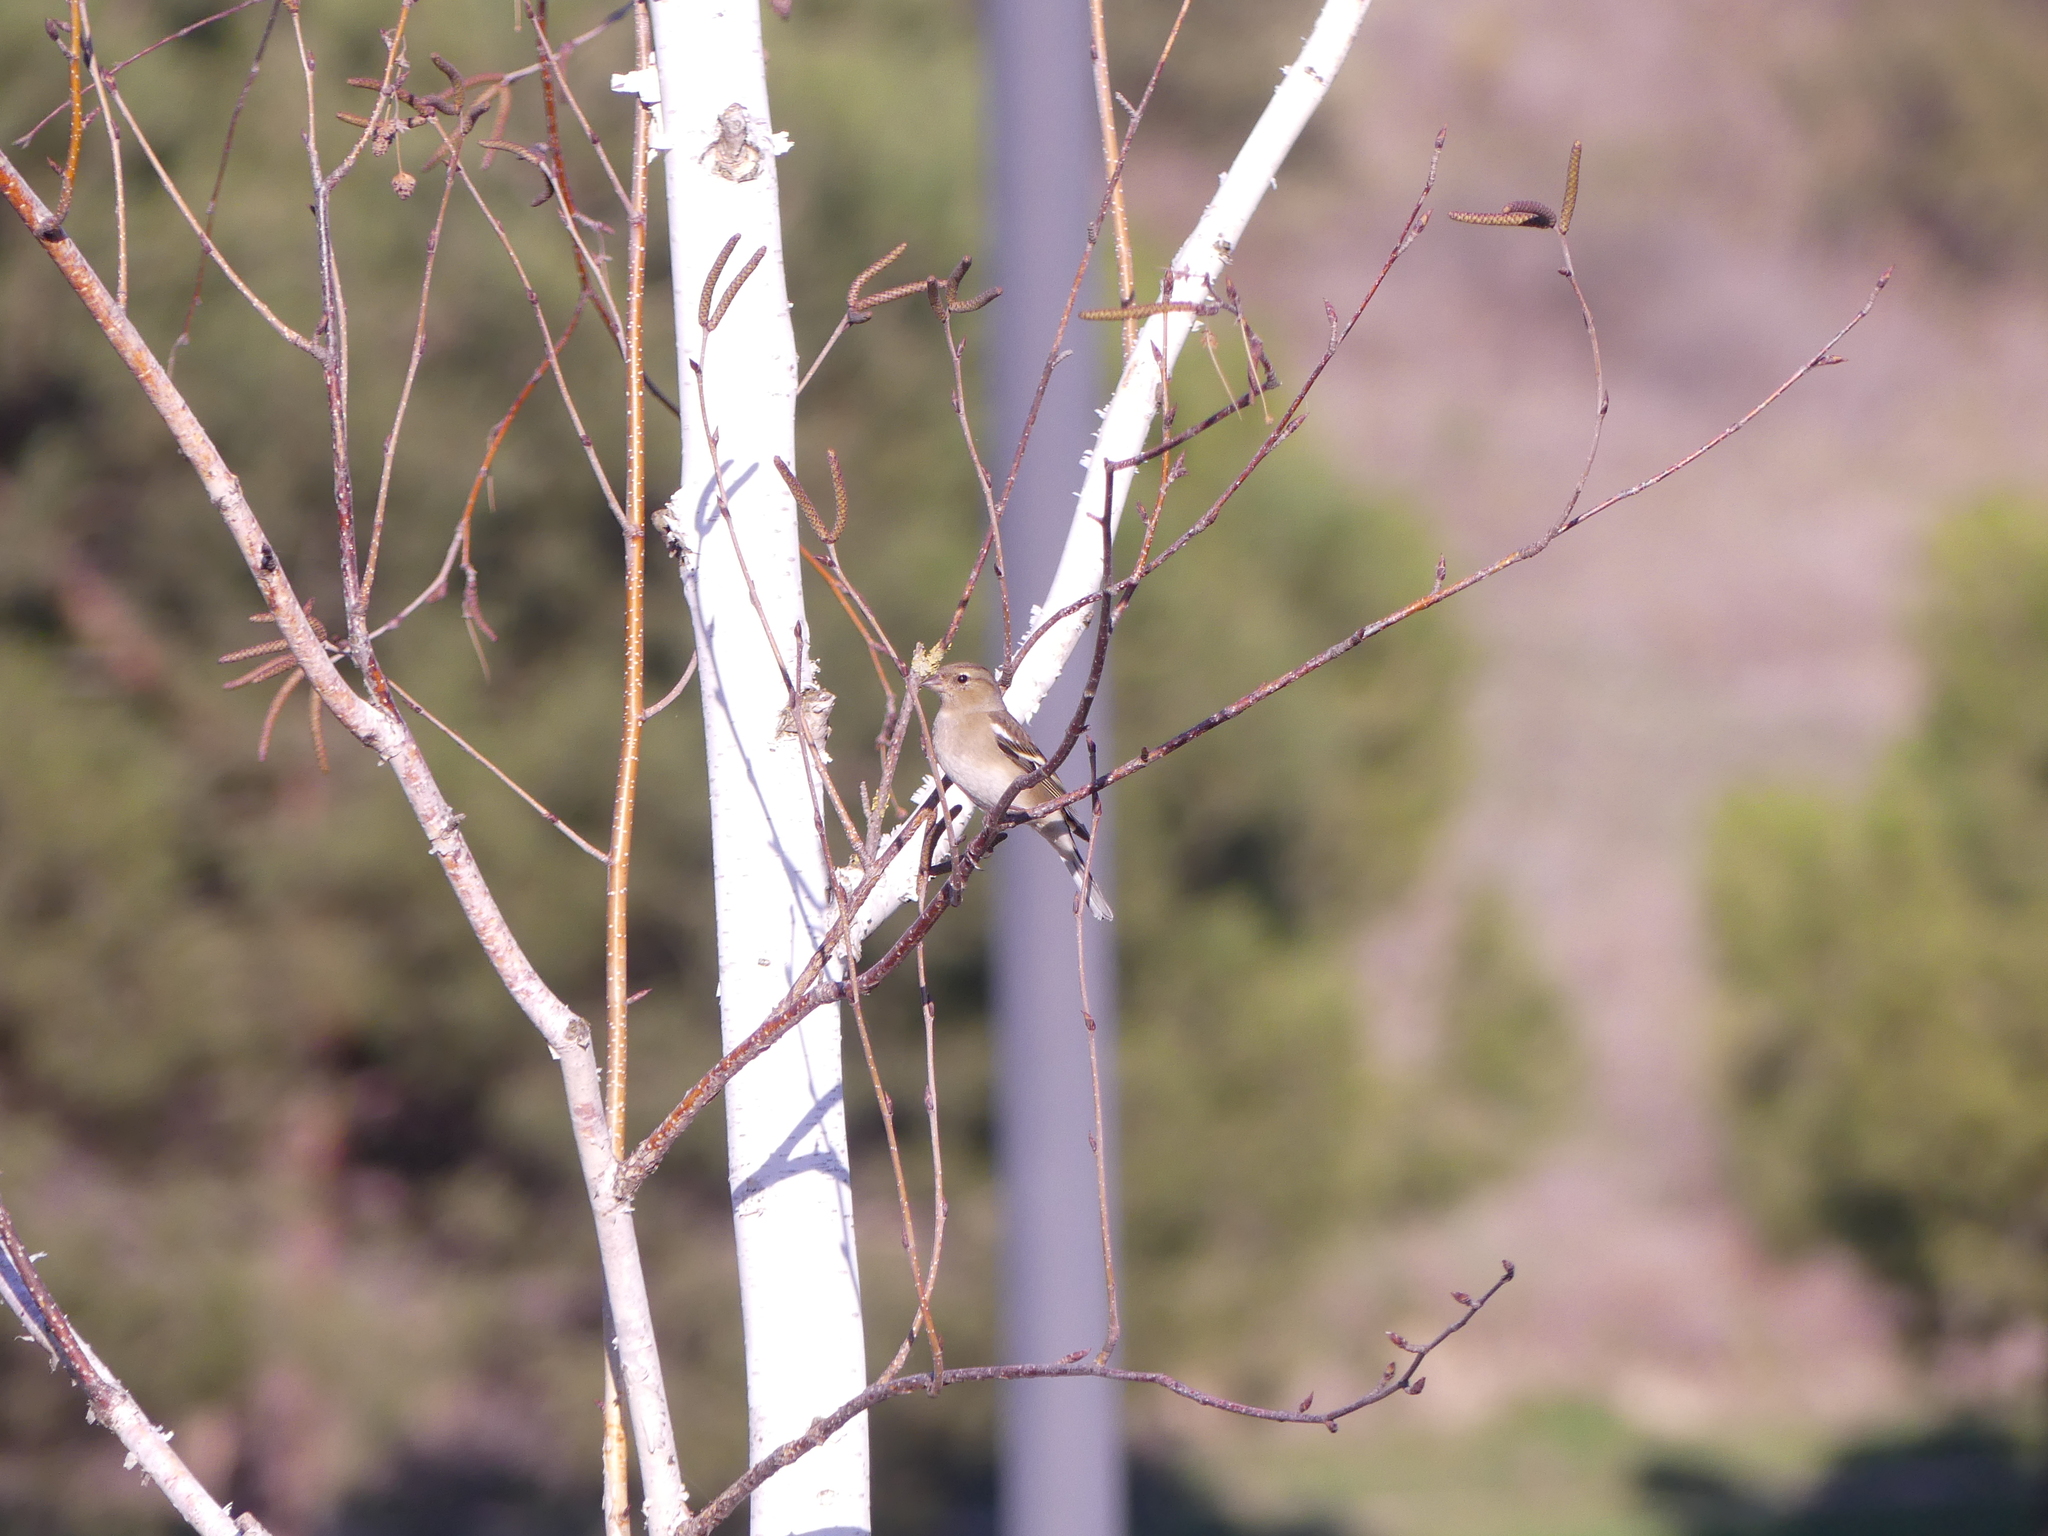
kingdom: Animalia
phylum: Chordata
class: Aves
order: Passeriformes
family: Fringillidae
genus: Fringilla
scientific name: Fringilla coelebs
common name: Common chaffinch
